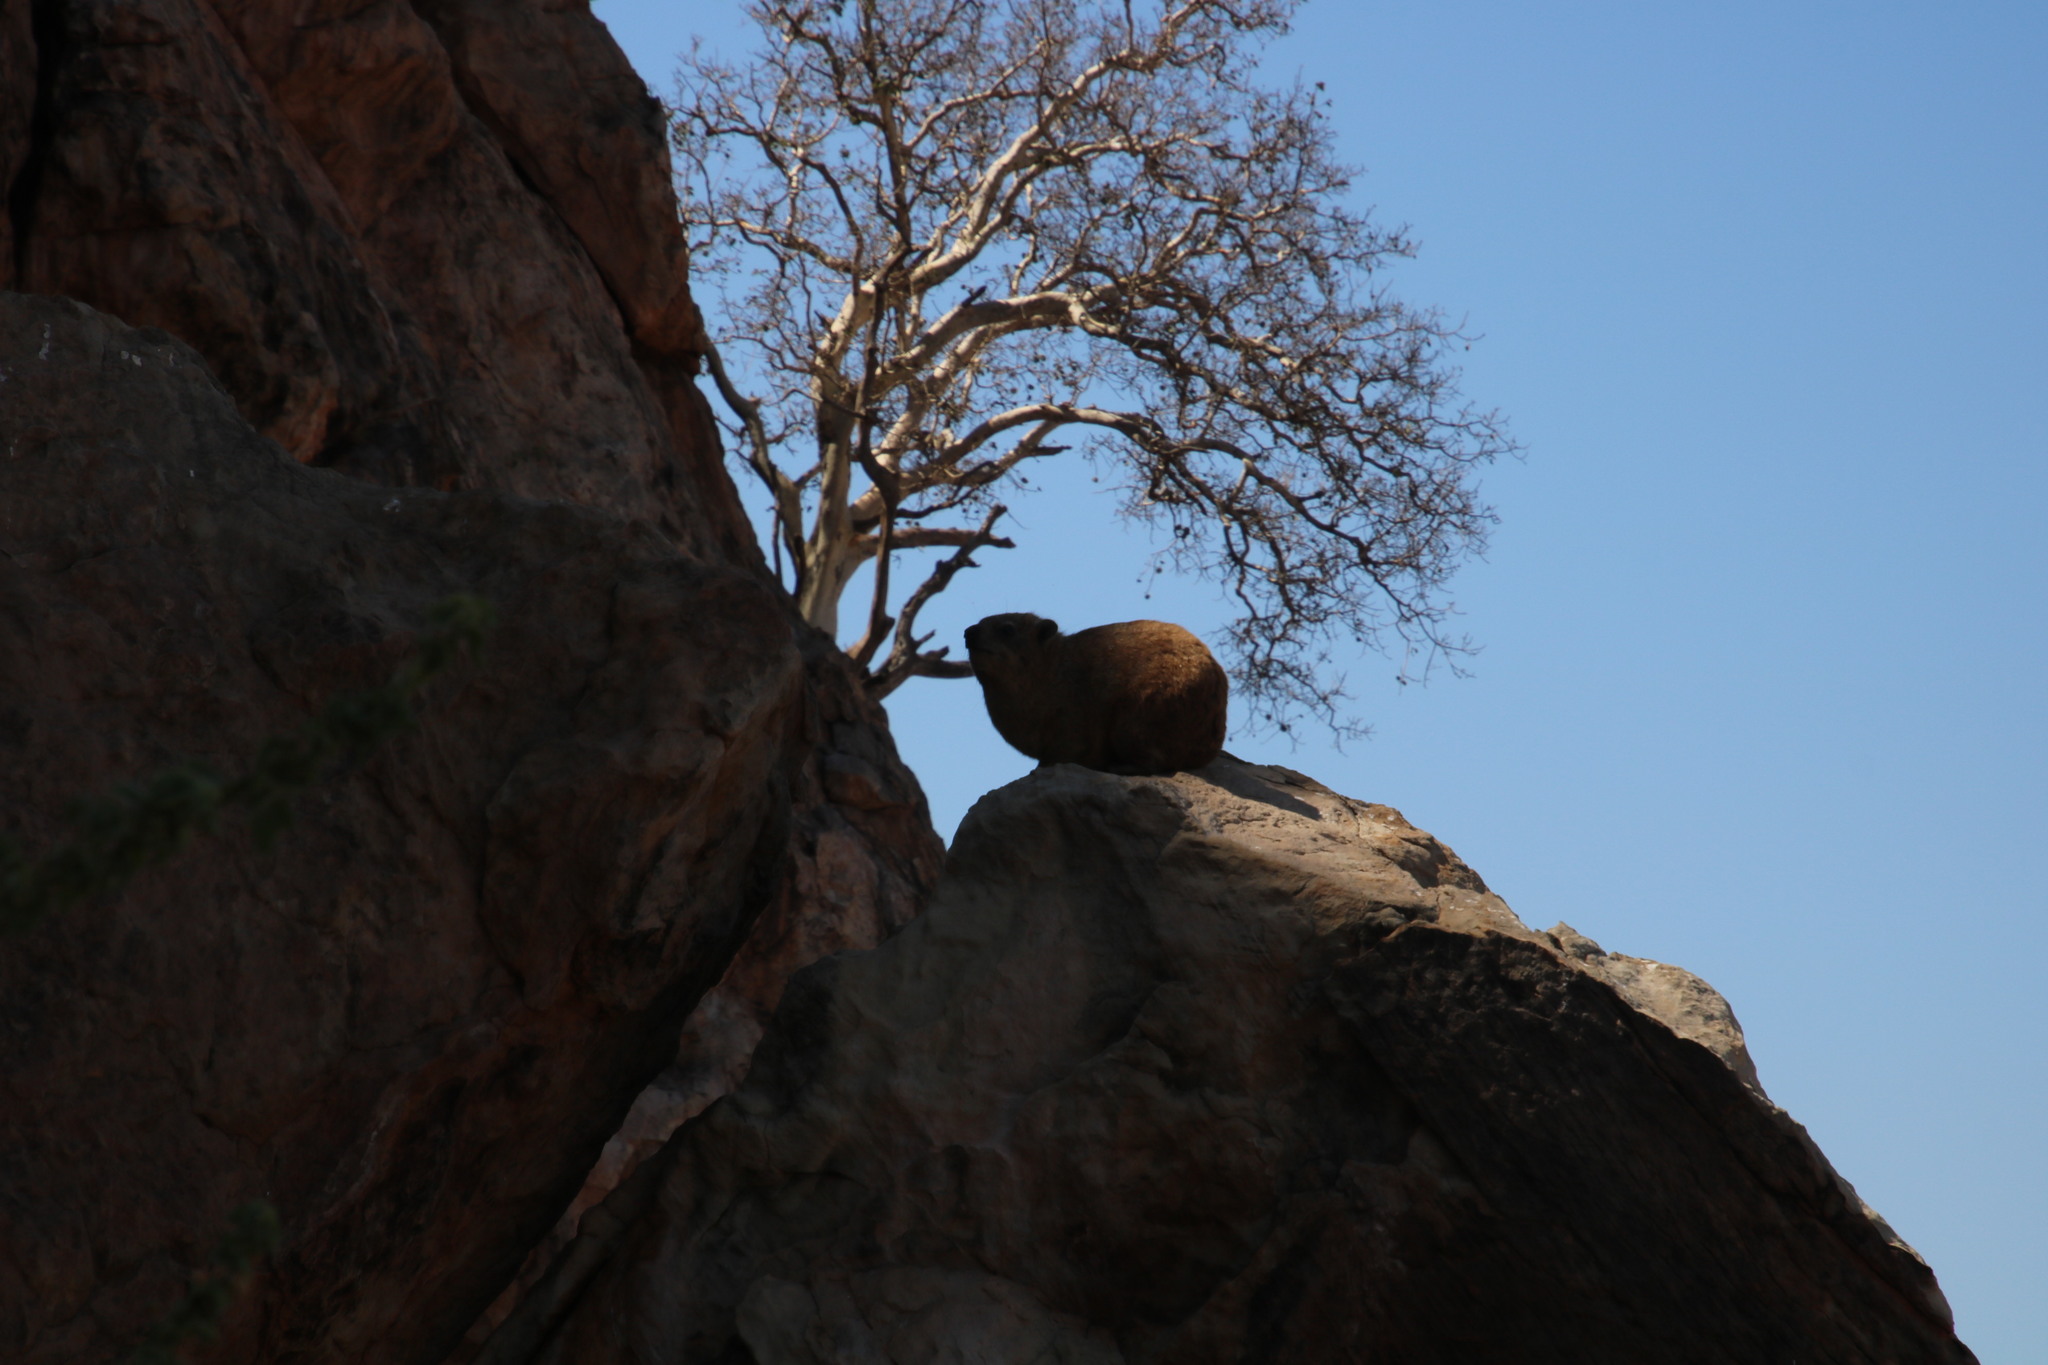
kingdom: Animalia
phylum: Chordata
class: Mammalia
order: Hyracoidea
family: Procaviidae
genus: Procavia
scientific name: Procavia capensis
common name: Rock hyrax
